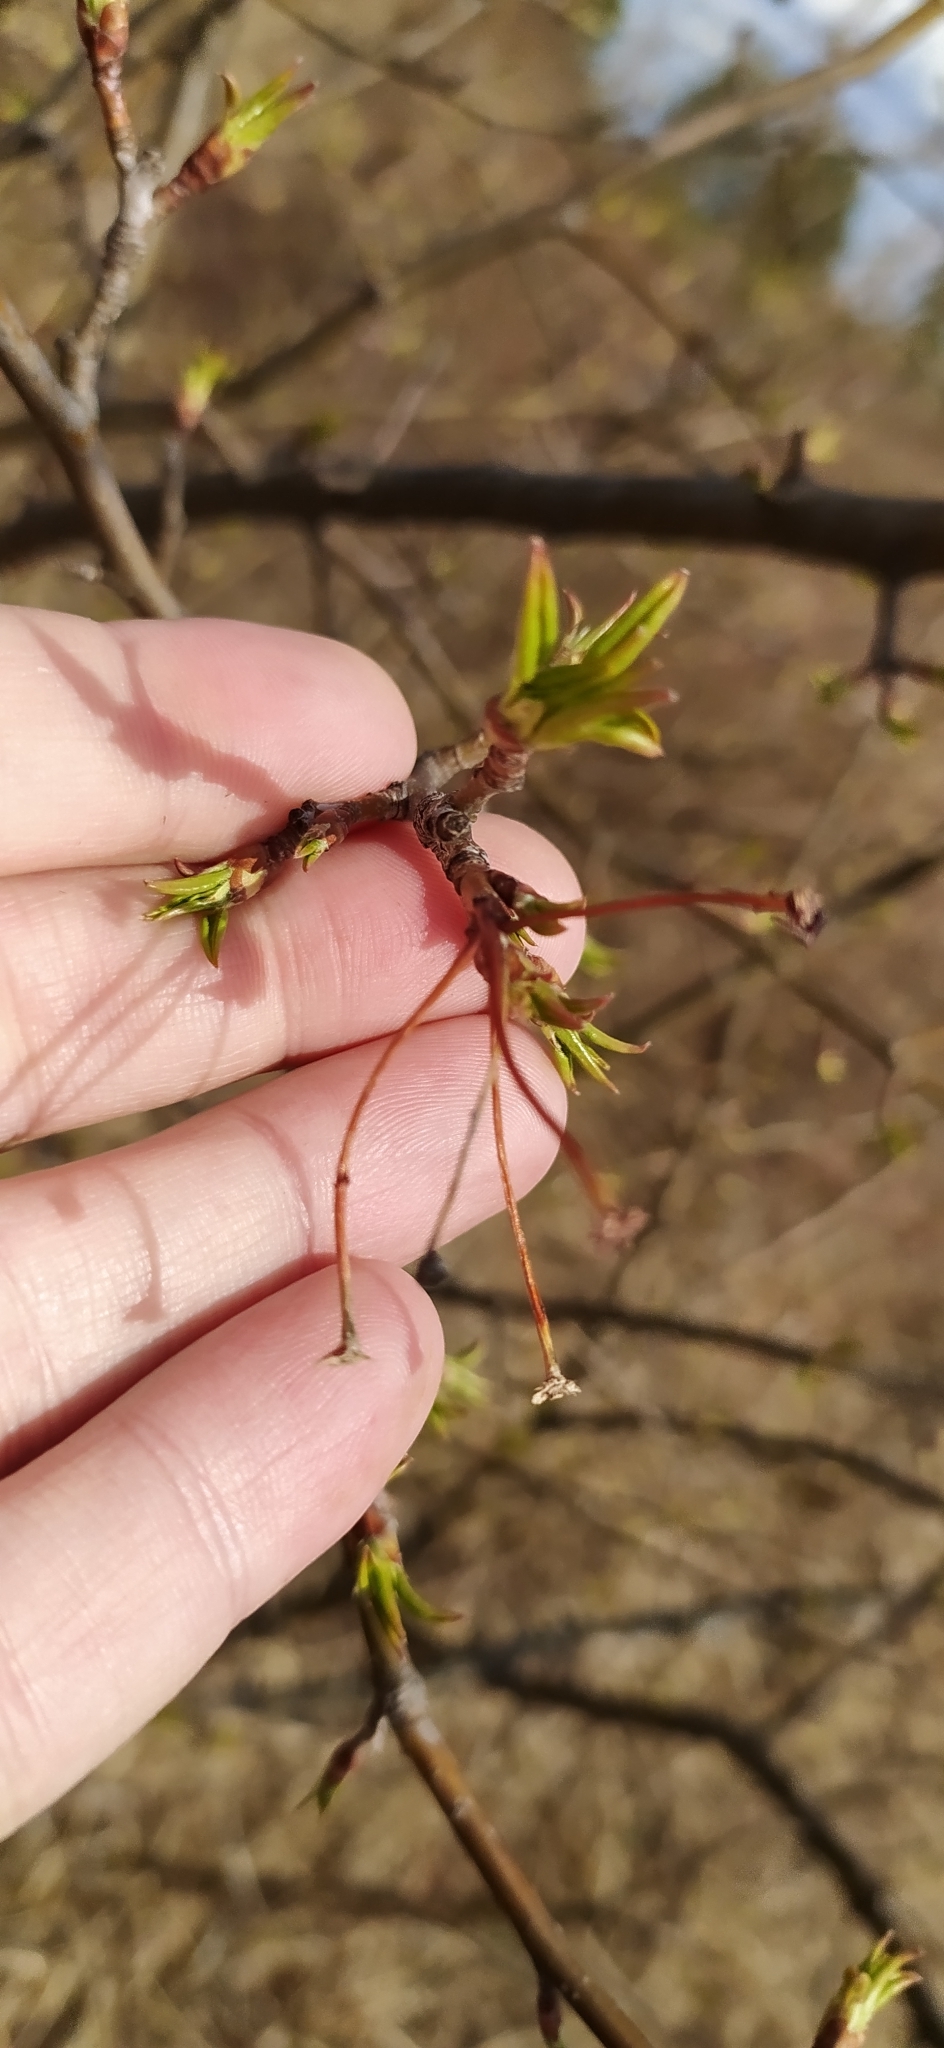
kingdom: Plantae
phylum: Tracheophyta
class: Magnoliopsida
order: Rosales
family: Rosaceae
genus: Malus
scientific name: Malus baccata
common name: Siberian crab
